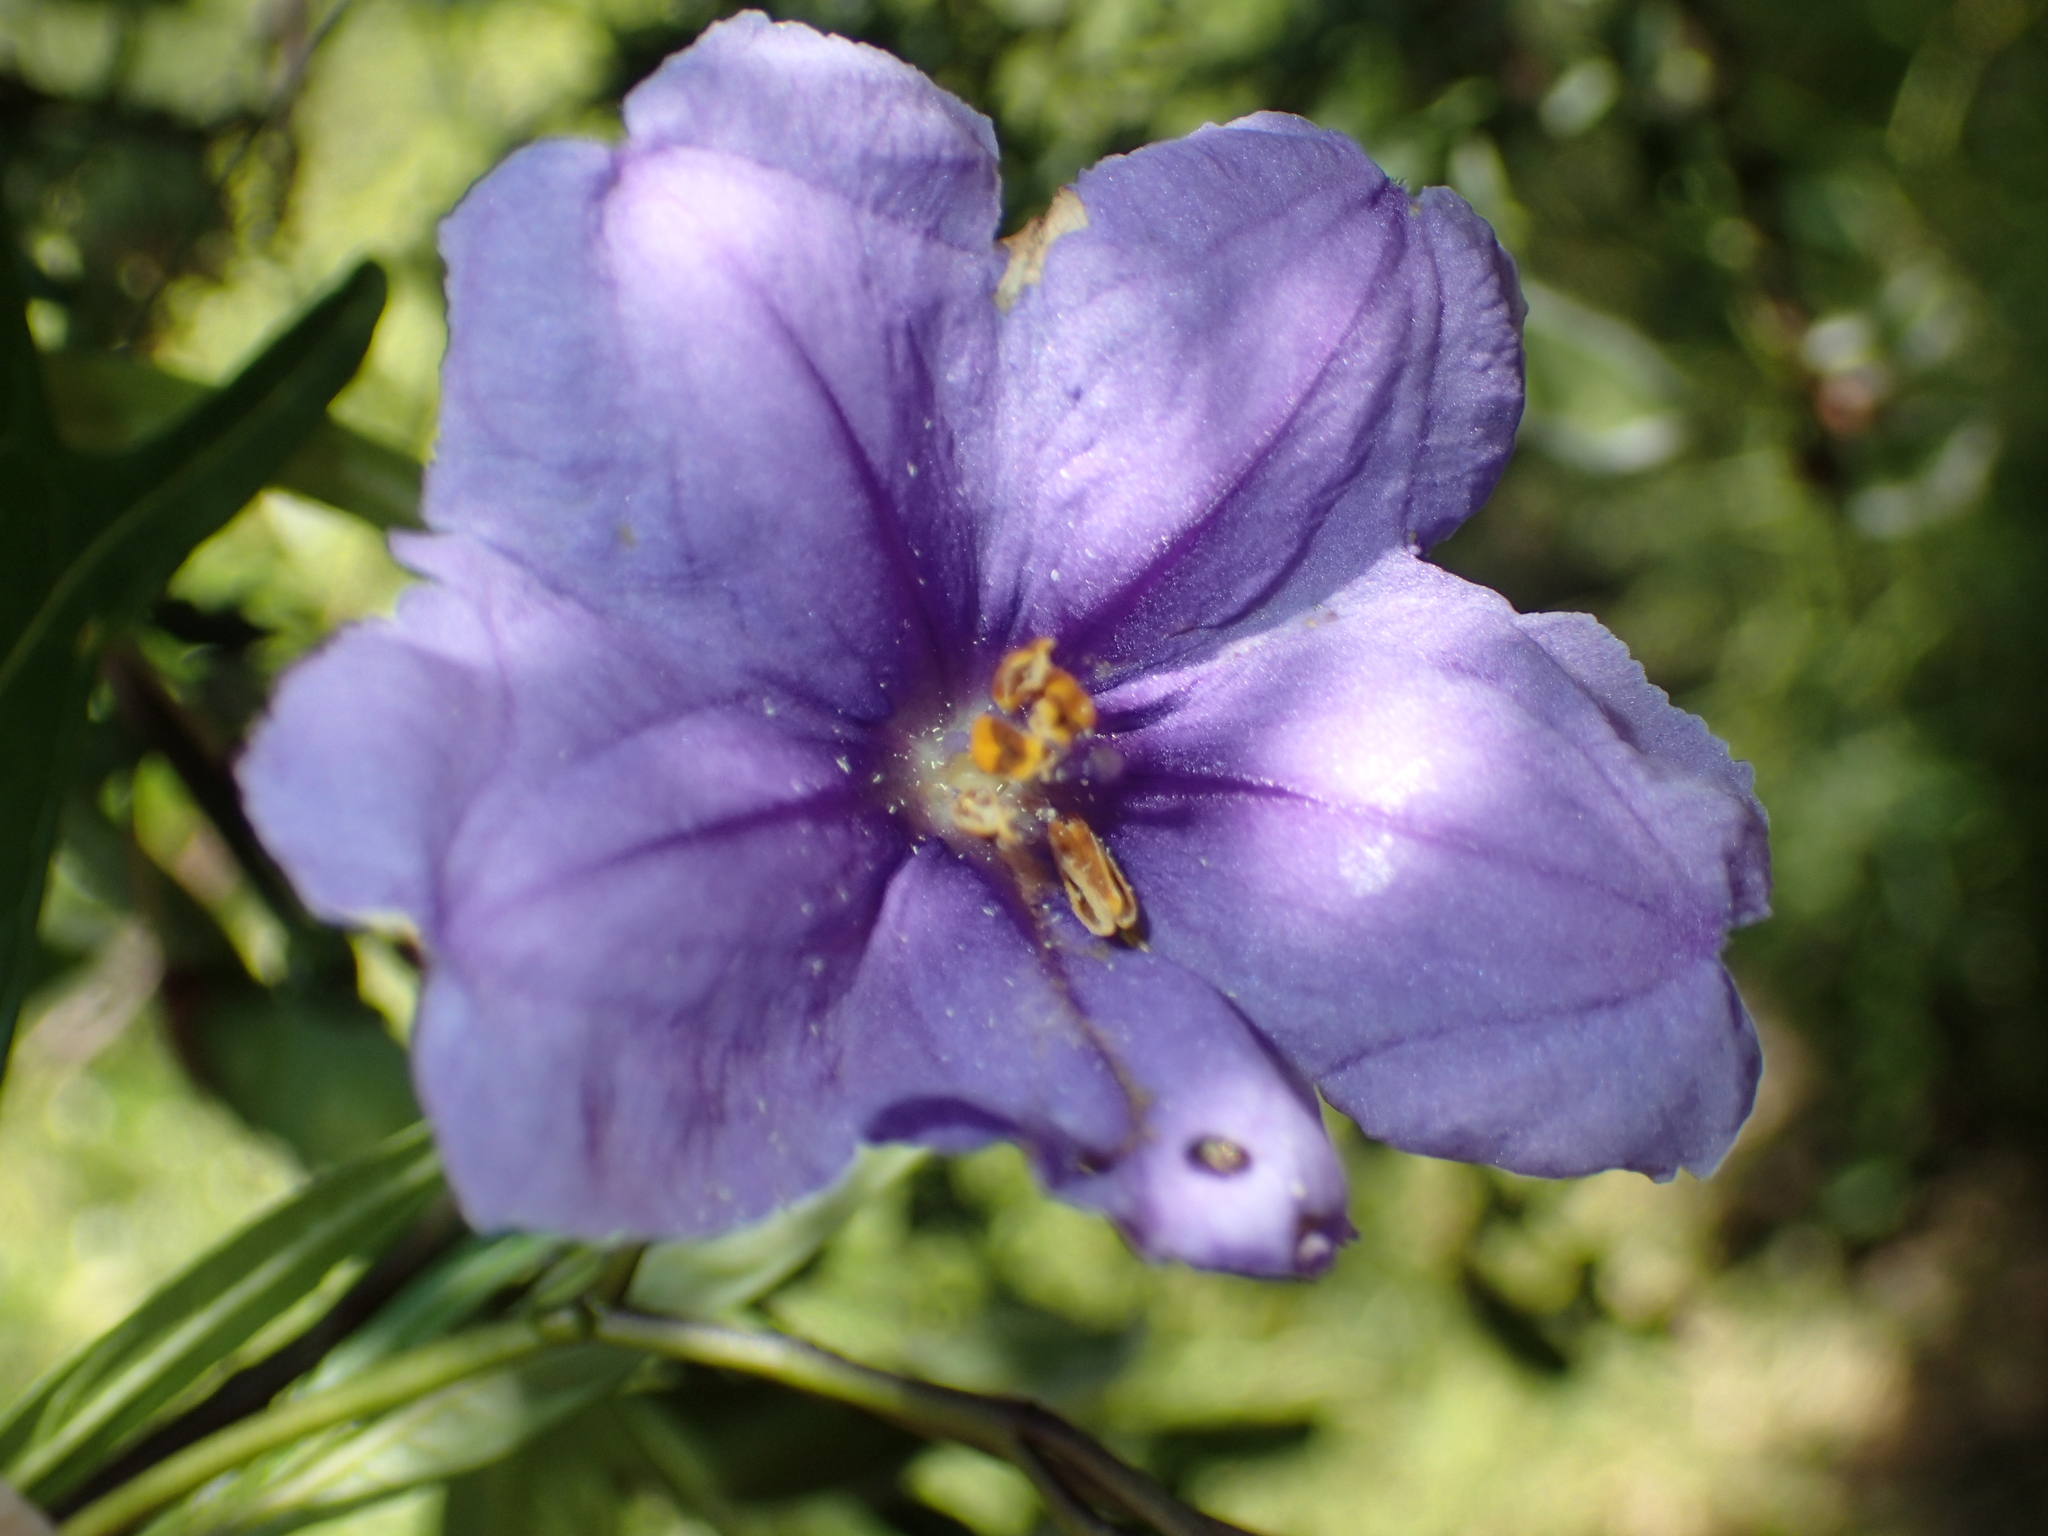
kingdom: Plantae
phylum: Tracheophyta
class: Magnoliopsida
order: Solanales
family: Solanaceae
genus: Solanum
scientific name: Solanum laciniatum
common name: Kangaroo-apple
